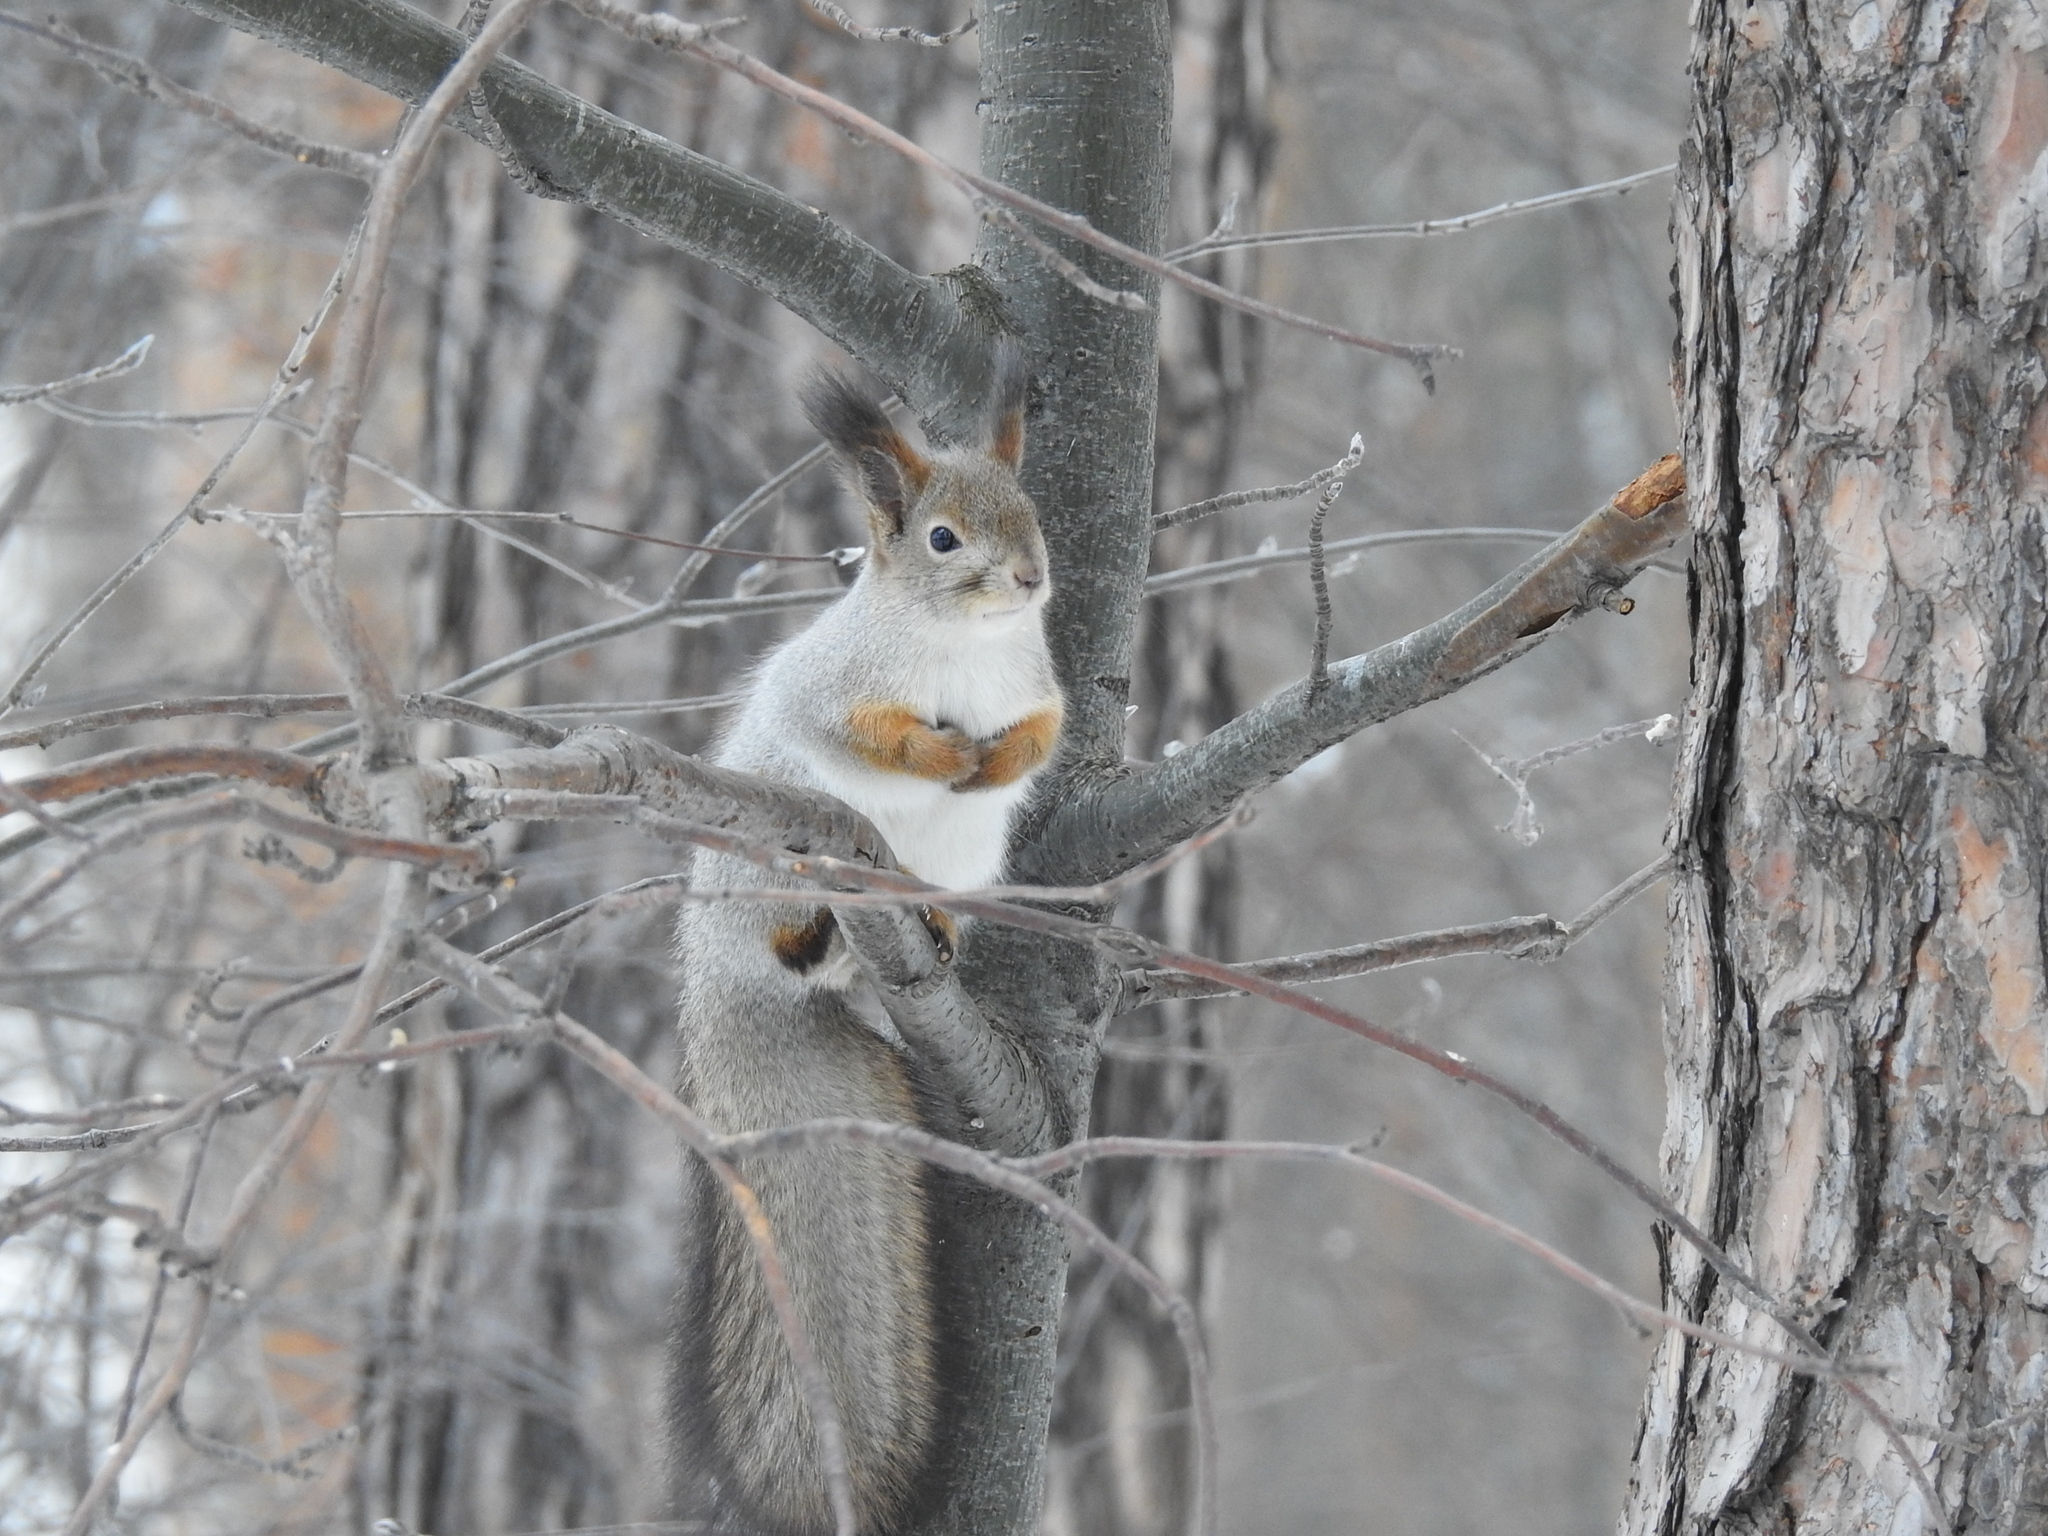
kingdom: Animalia
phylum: Chordata
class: Mammalia
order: Rodentia
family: Sciuridae
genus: Sciurus
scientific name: Sciurus vulgaris
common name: Eurasian red squirrel
